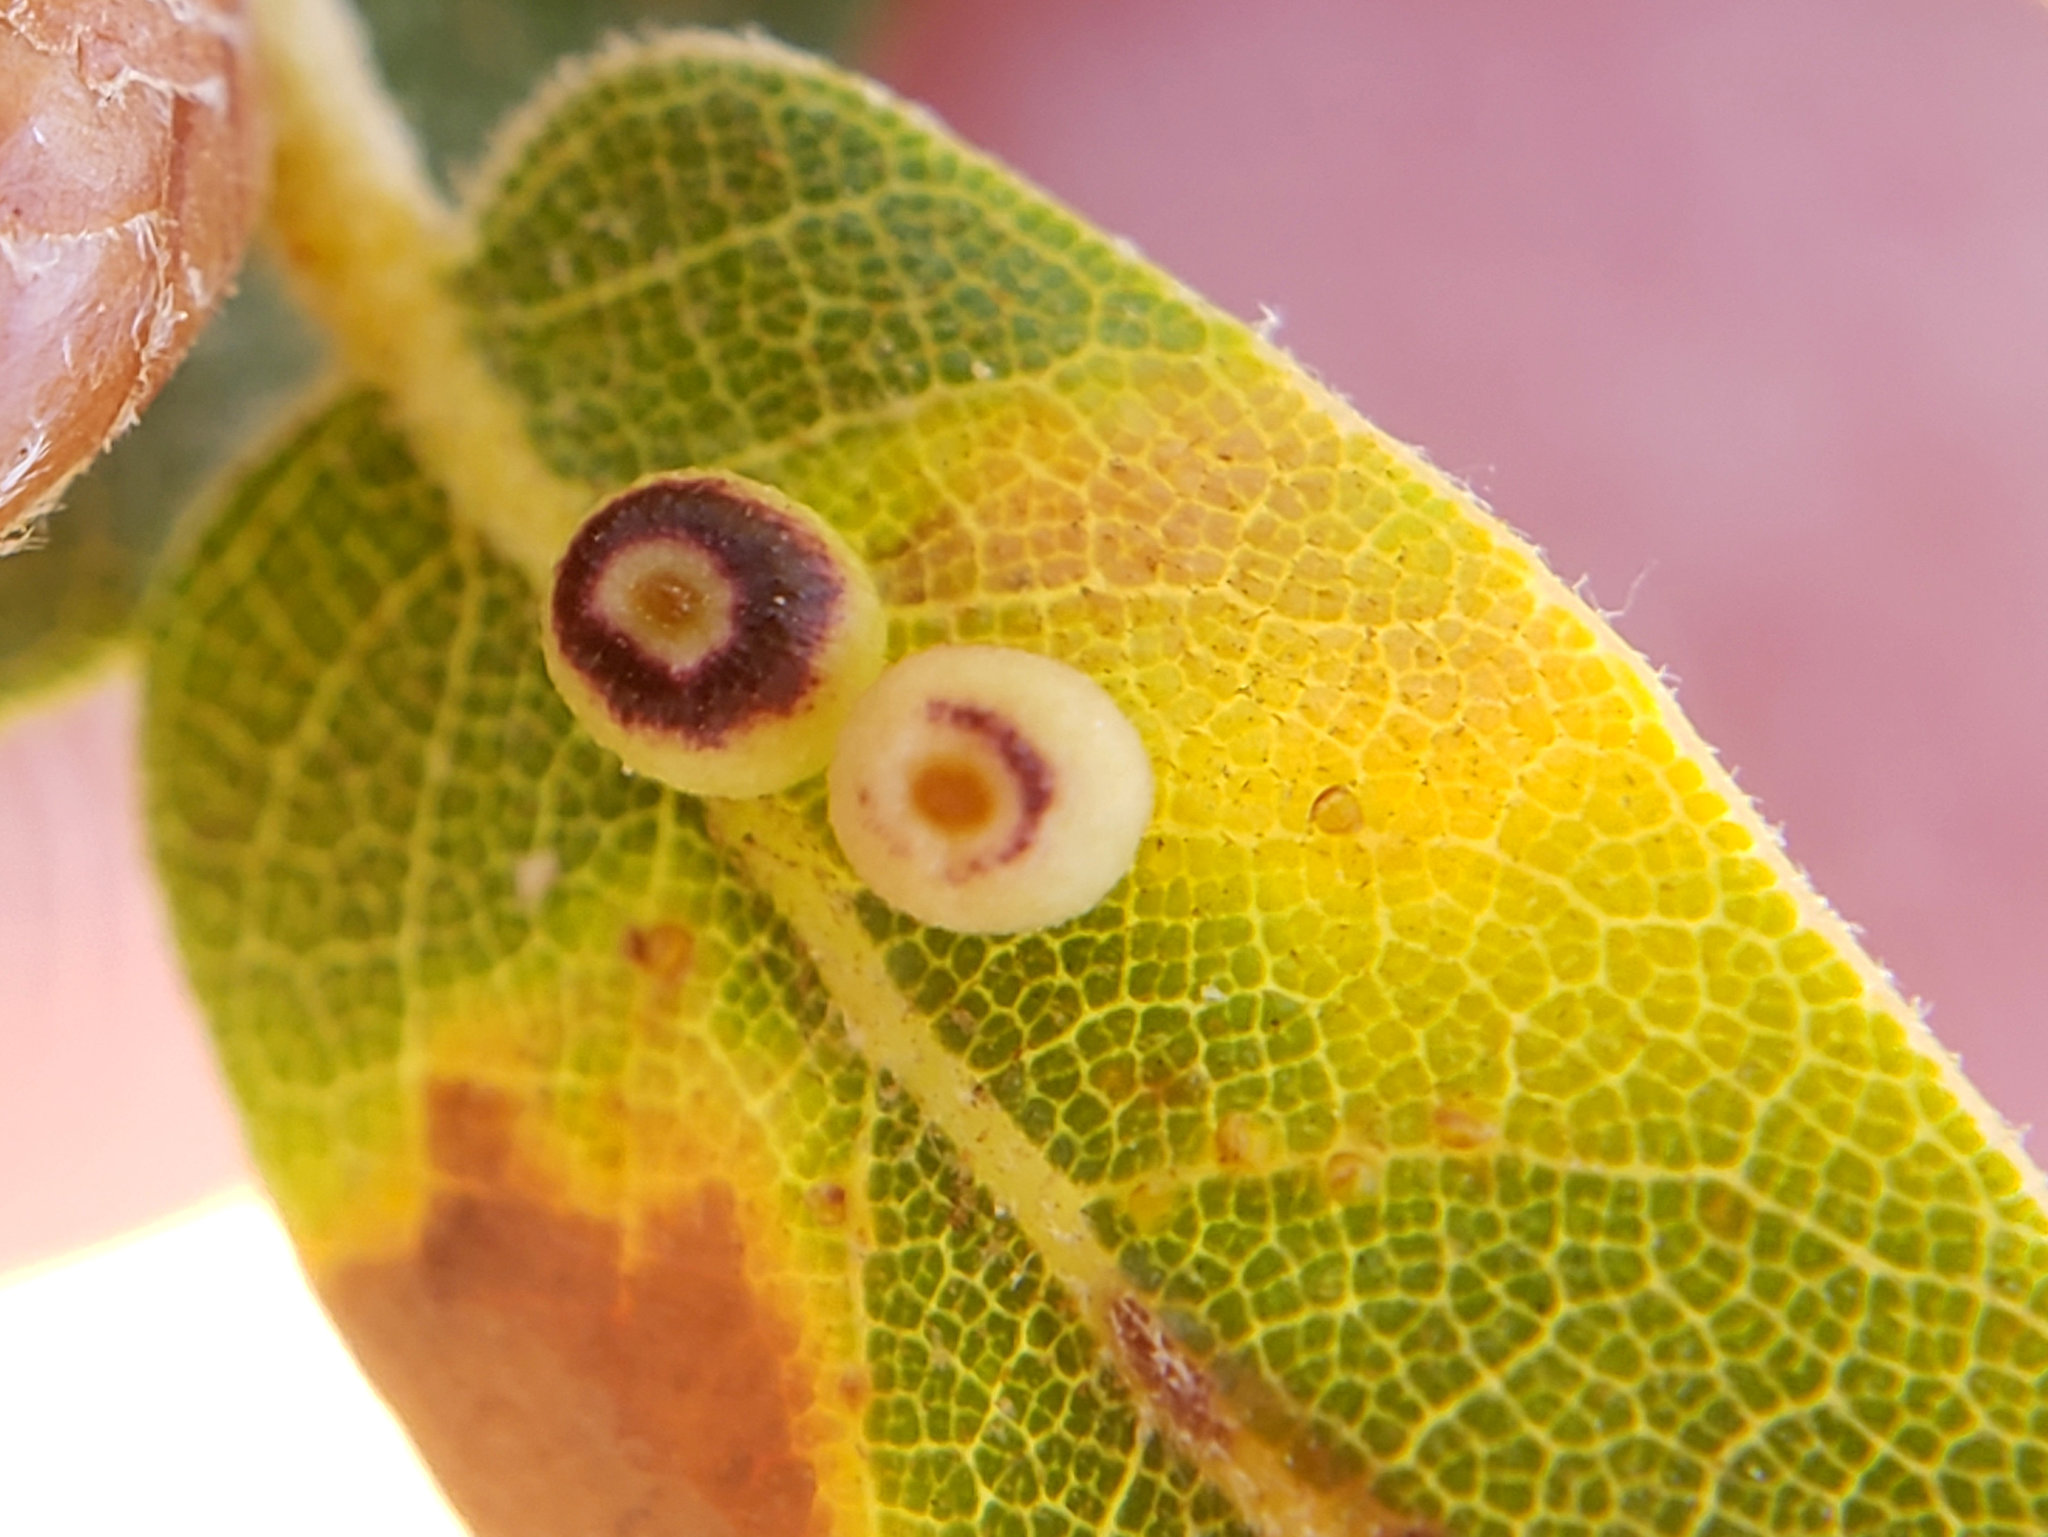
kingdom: Animalia
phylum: Arthropoda
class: Insecta
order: Hymenoptera
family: Cynipidae
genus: Dryocosmus
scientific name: Dryocosmus
